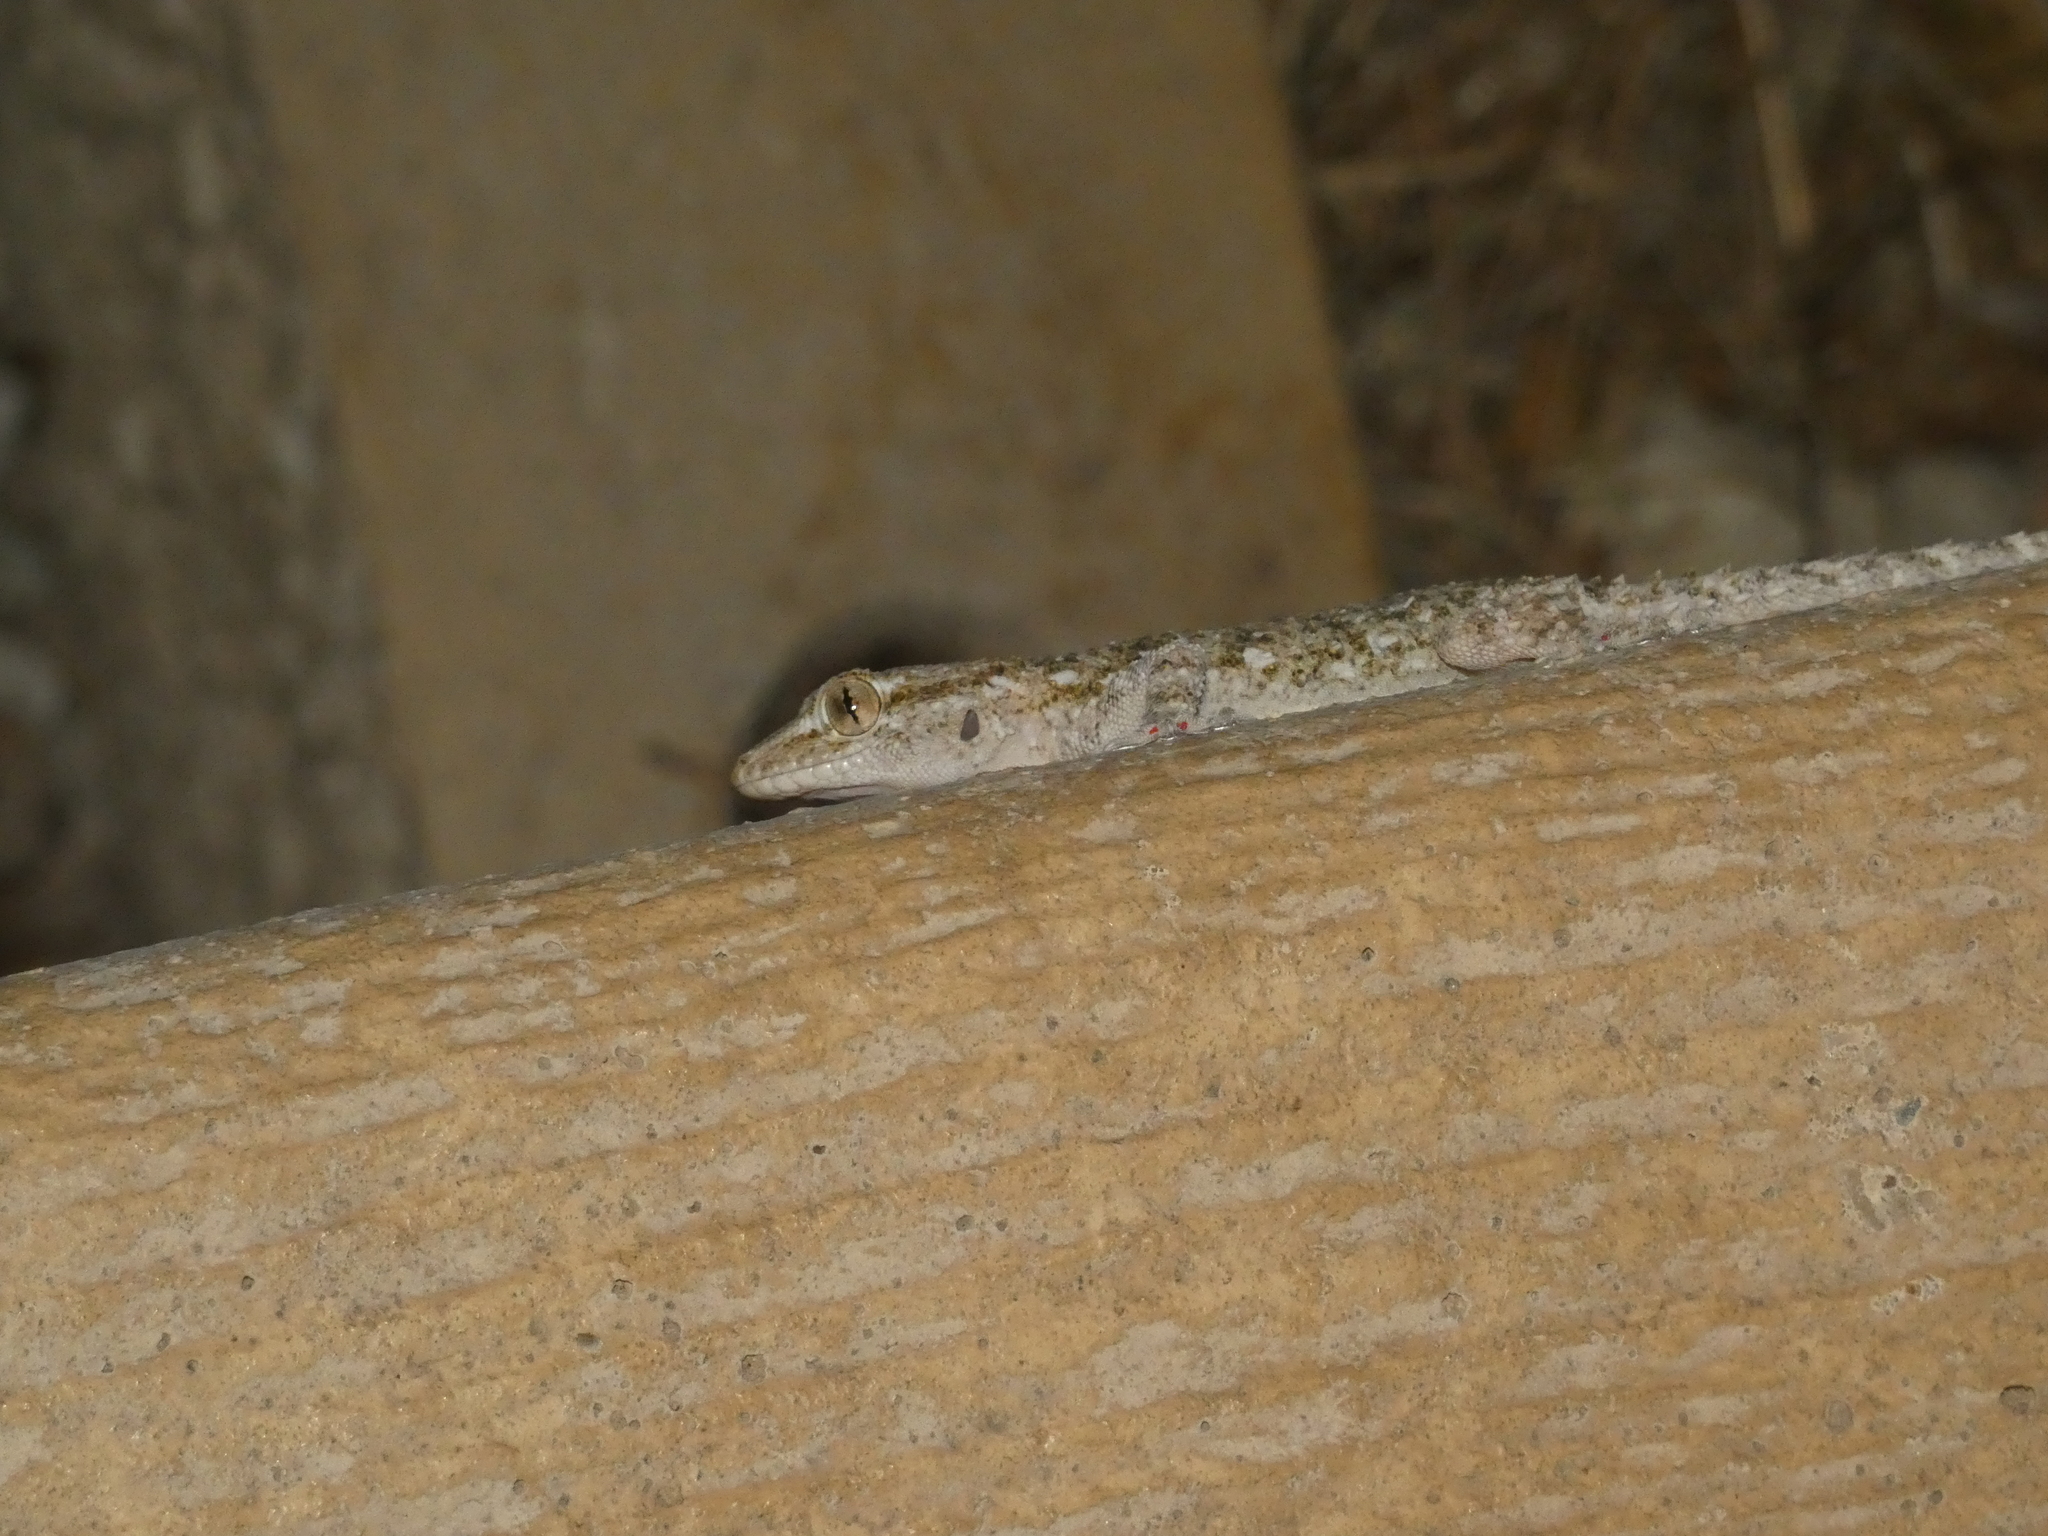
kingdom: Animalia
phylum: Chordata
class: Squamata
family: Phyllodactylidae
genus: Tarentola
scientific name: Tarentola mauritanica
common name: Moorish gecko
